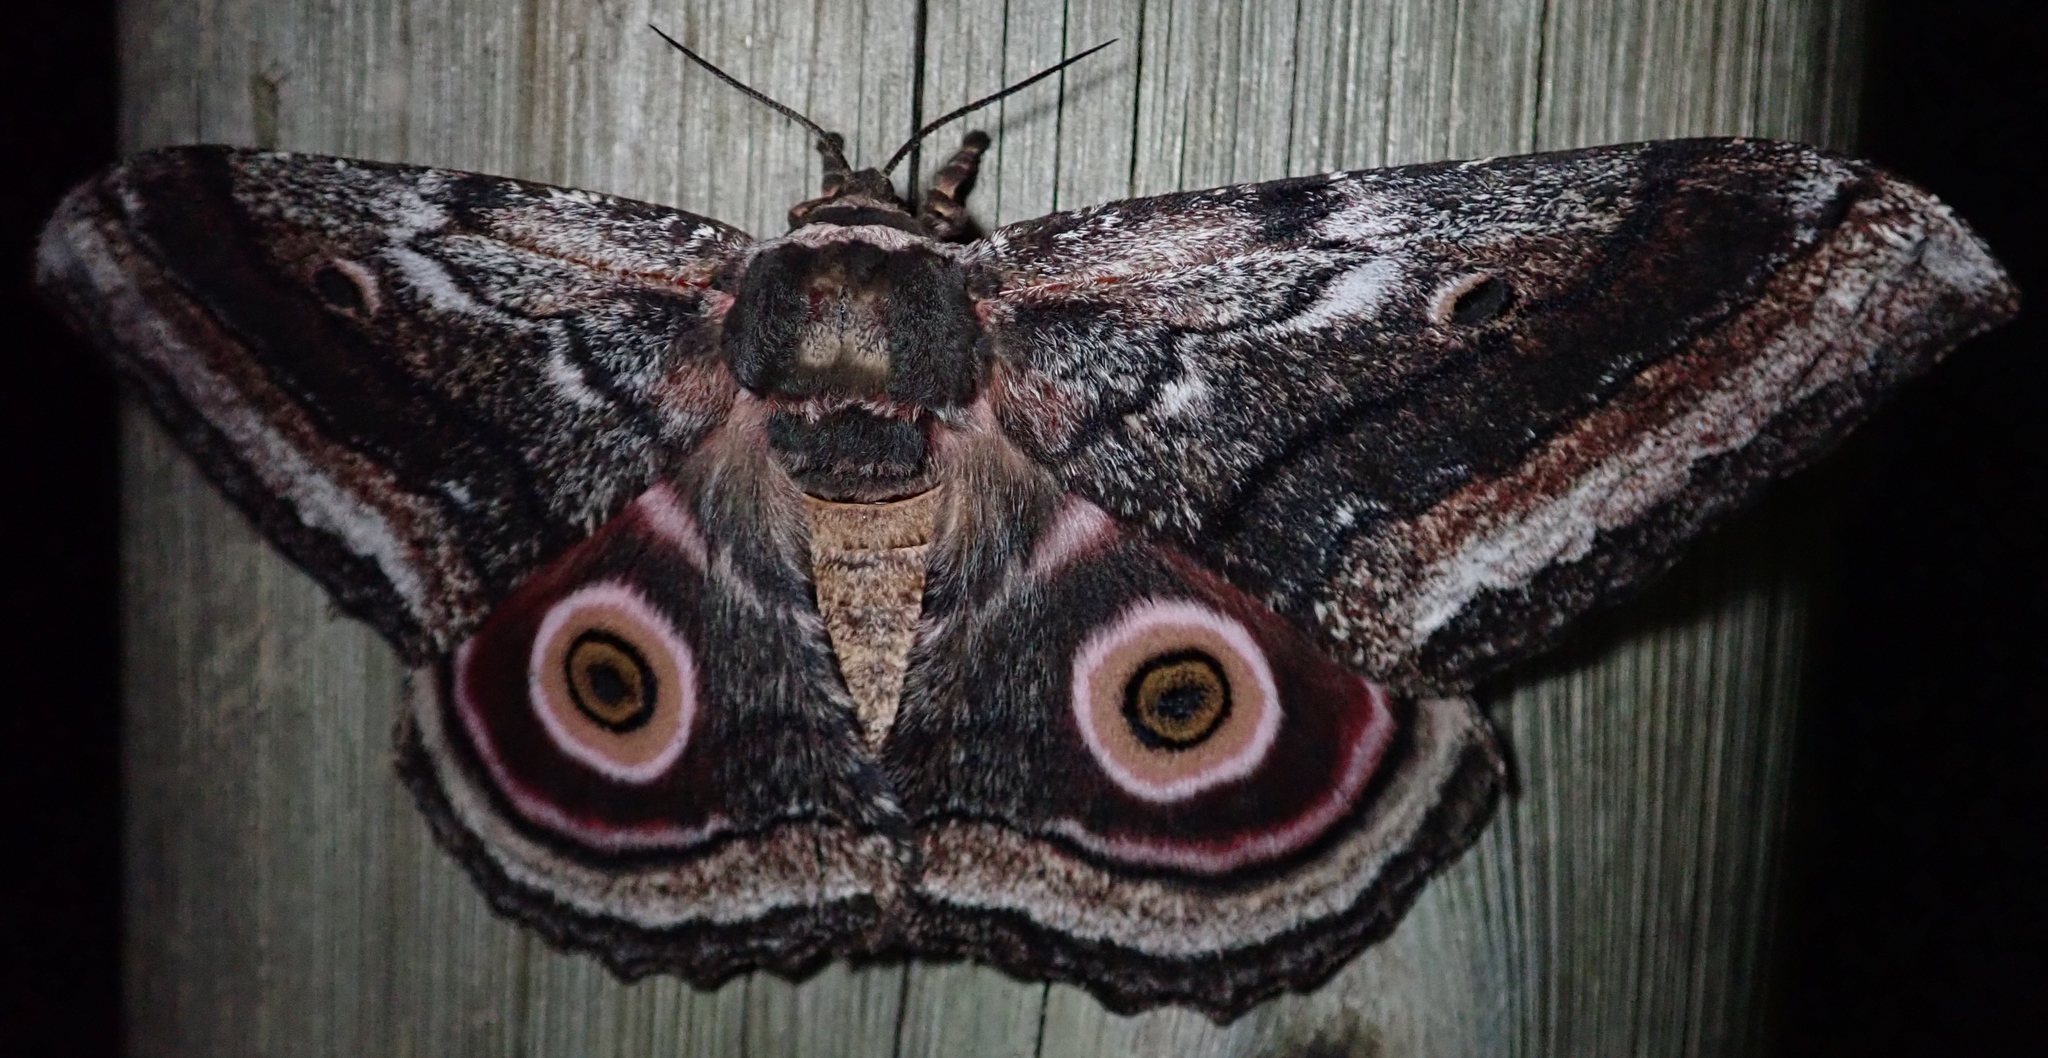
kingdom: Animalia
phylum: Arthropoda
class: Insecta
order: Lepidoptera
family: Saturniidae
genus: Gynanisa
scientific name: Gynanisa maja
